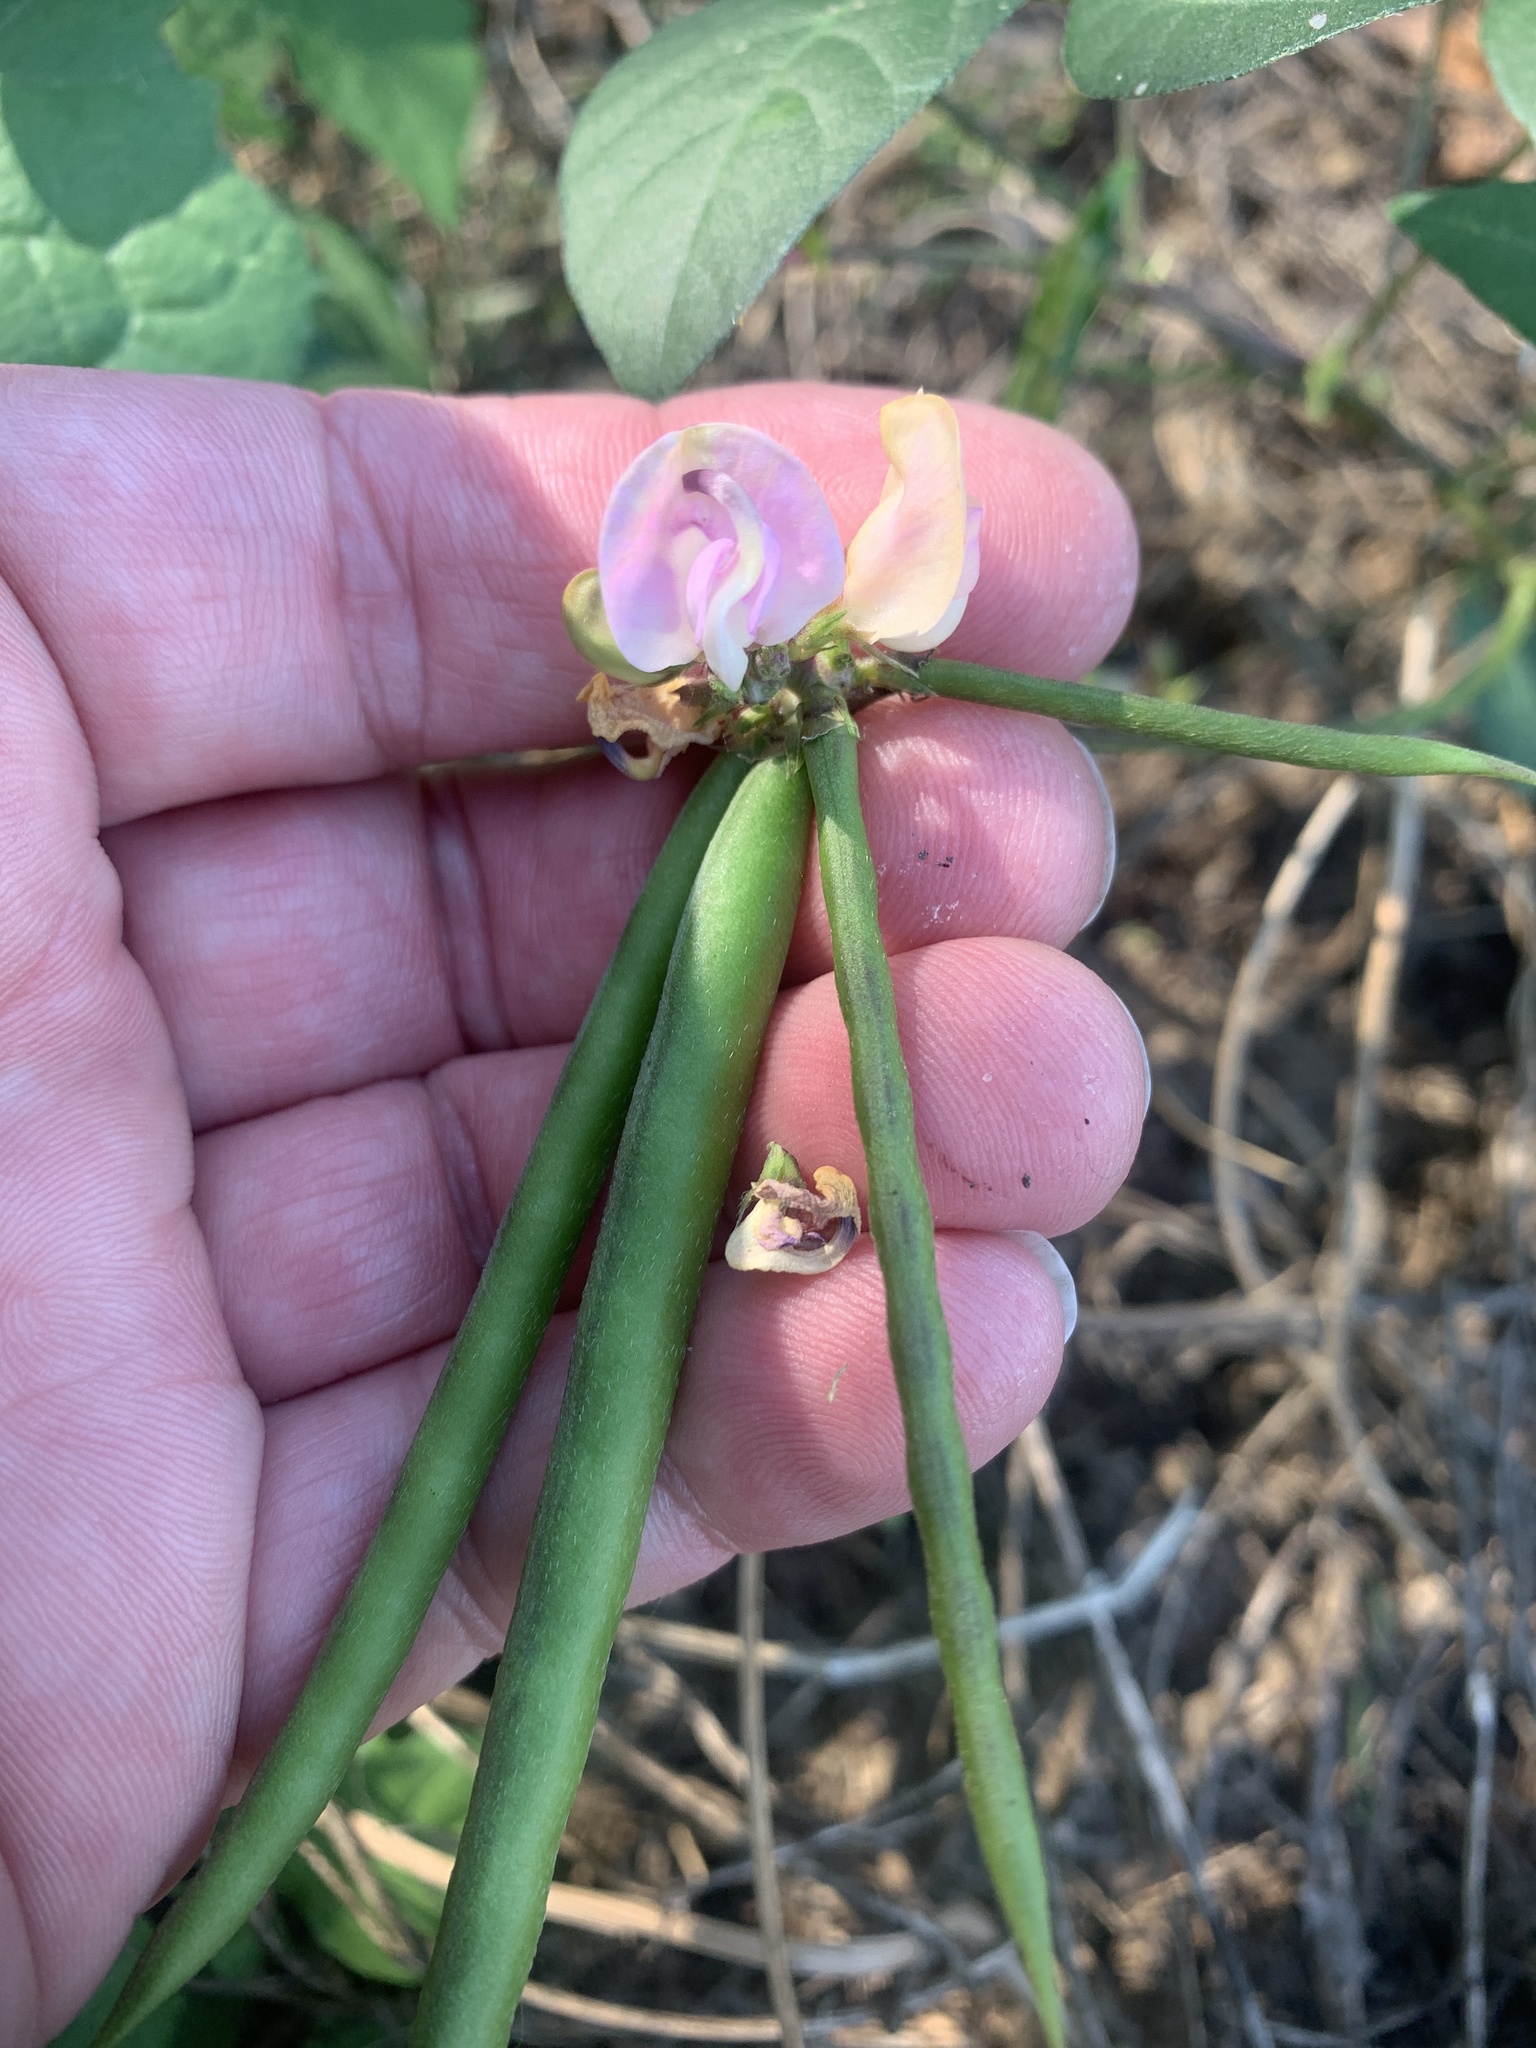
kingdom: Plantae
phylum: Tracheophyta
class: Magnoliopsida
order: Fabales
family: Fabaceae
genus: Strophostyles
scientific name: Strophostyles helvola
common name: Trailing wild bean
